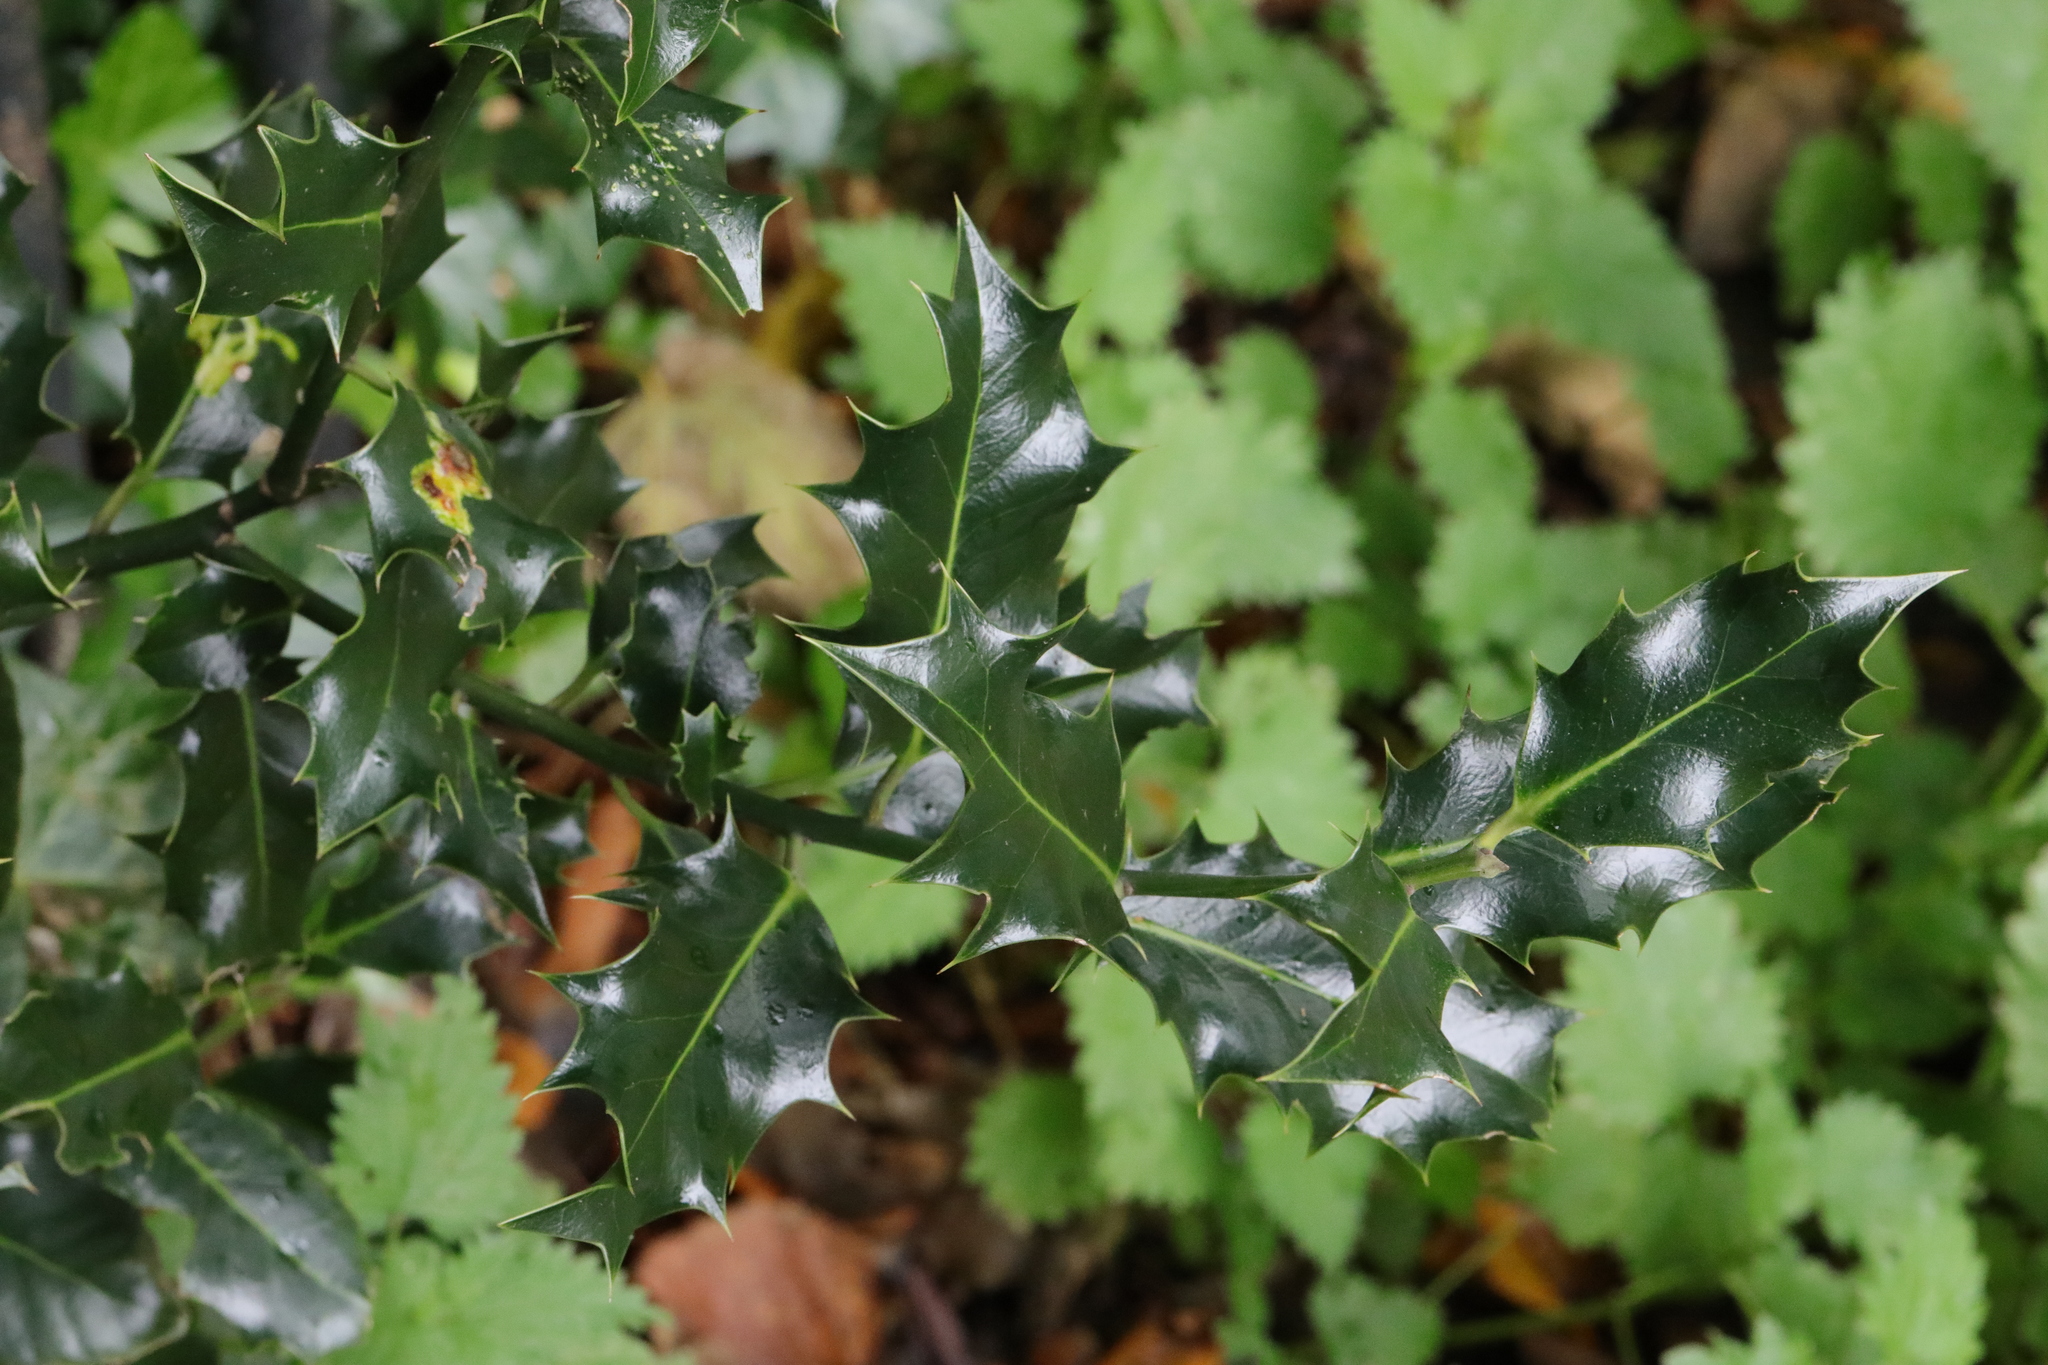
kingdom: Plantae
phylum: Tracheophyta
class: Magnoliopsida
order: Aquifoliales
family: Aquifoliaceae
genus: Ilex
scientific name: Ilex aquifolium
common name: English holly
